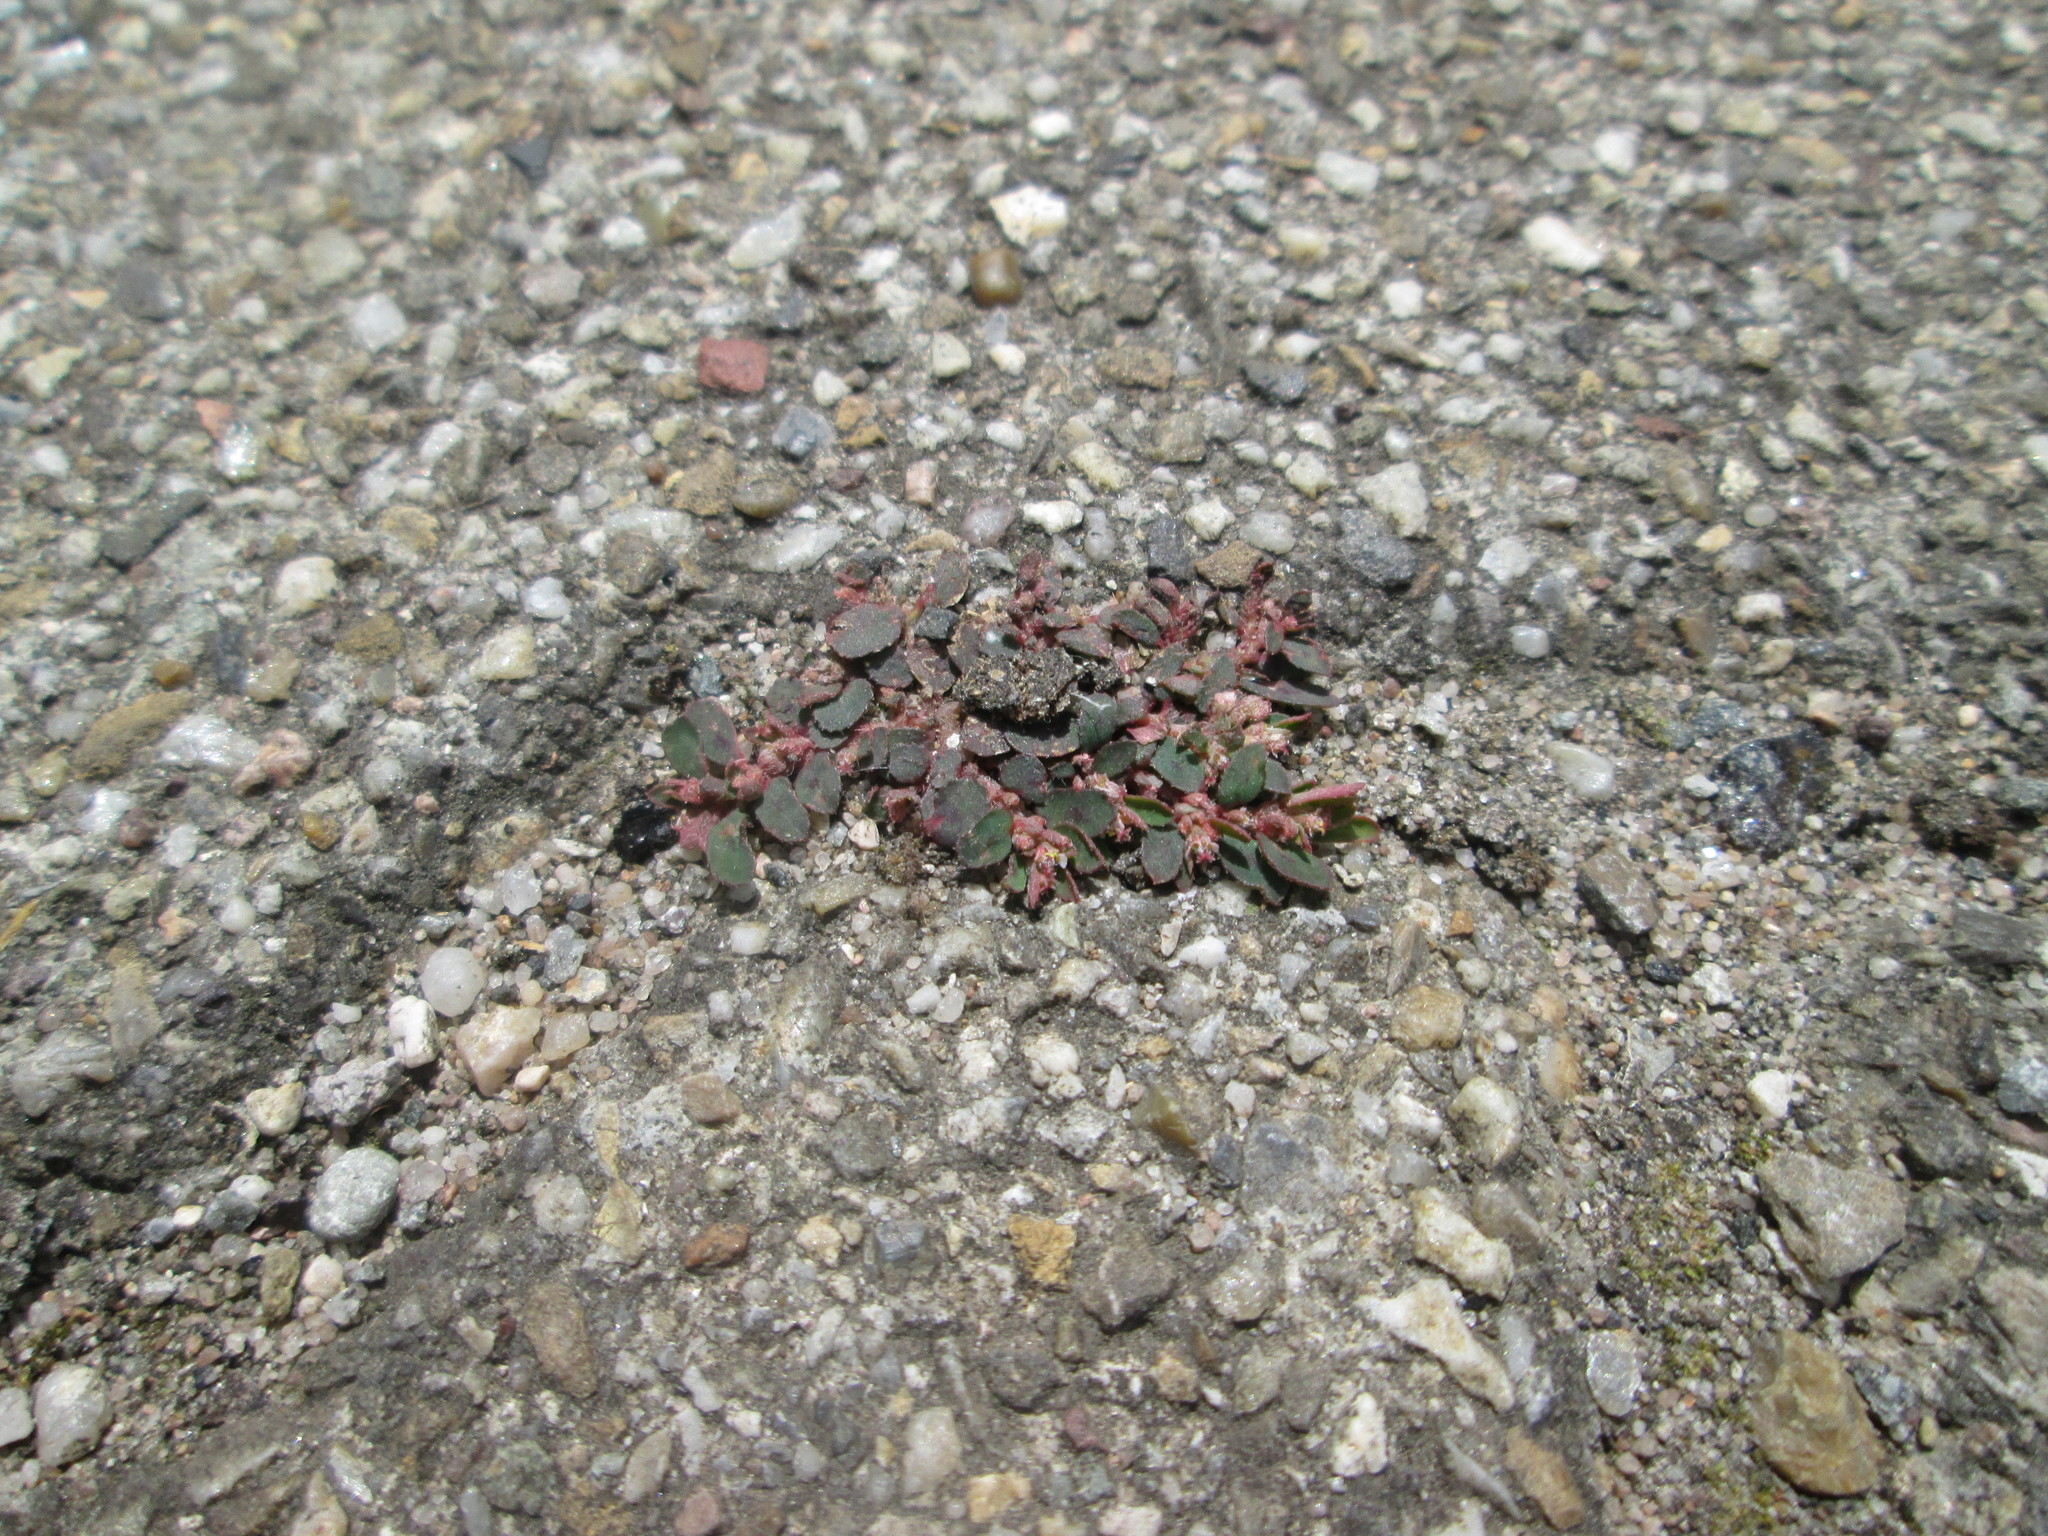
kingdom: Plantae
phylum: Tracheophyta
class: Magnoliopsida
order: Malpighiales
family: Euphorbiaceae
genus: Euphorbia
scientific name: Euphorbia maculata
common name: Spotted spurge
